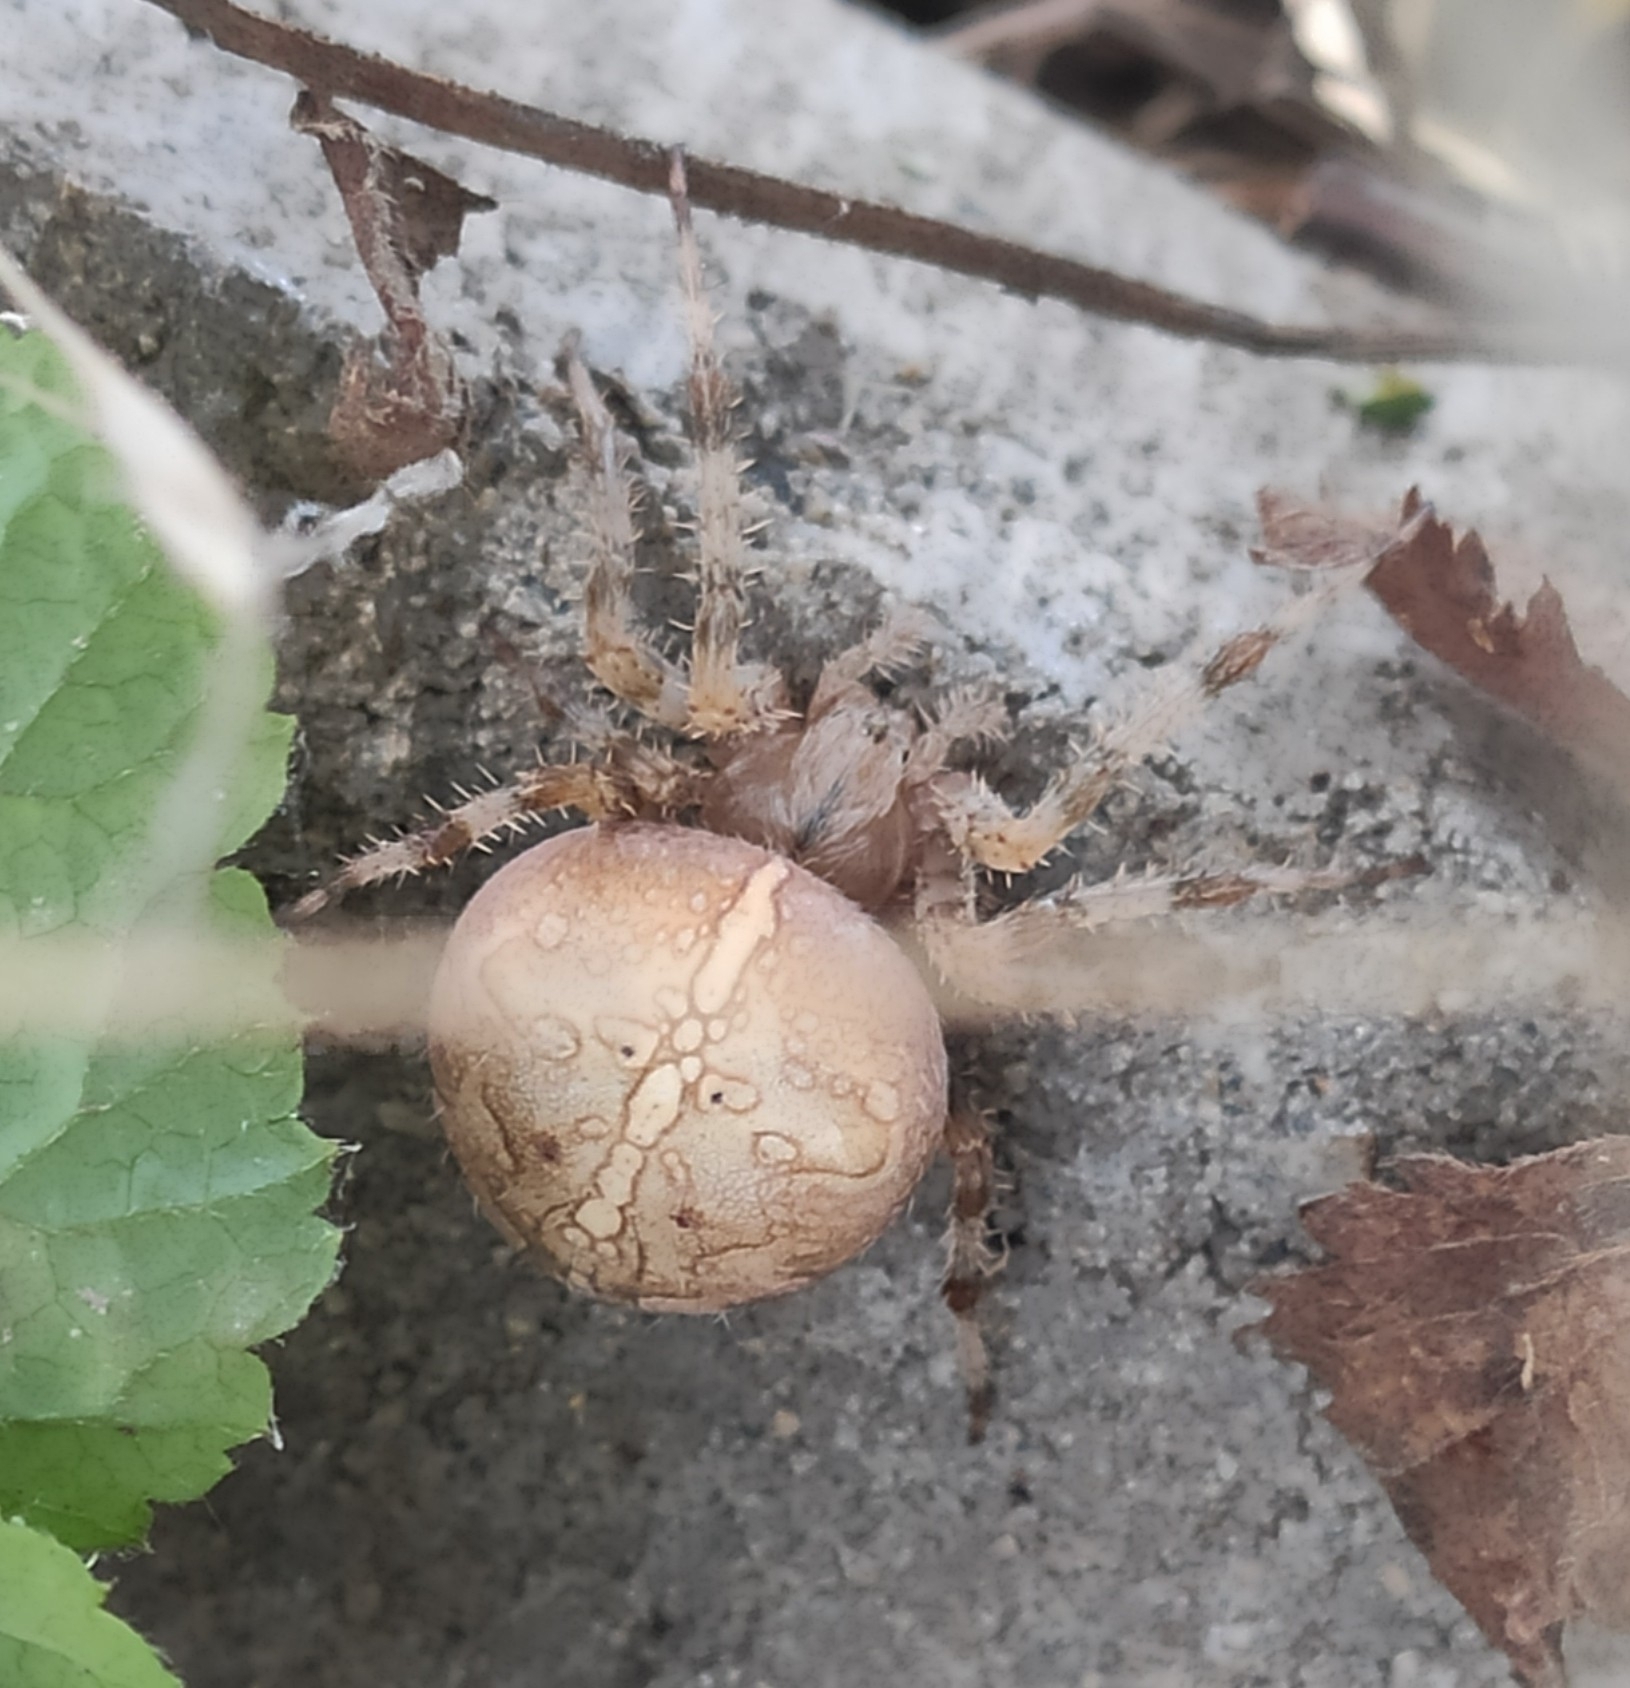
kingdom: Animalia
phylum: Arthropoda
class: Arachnida
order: Araneae
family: Araneidae
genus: Araneus
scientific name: Araneus diadematus
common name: Cross orbweaver
